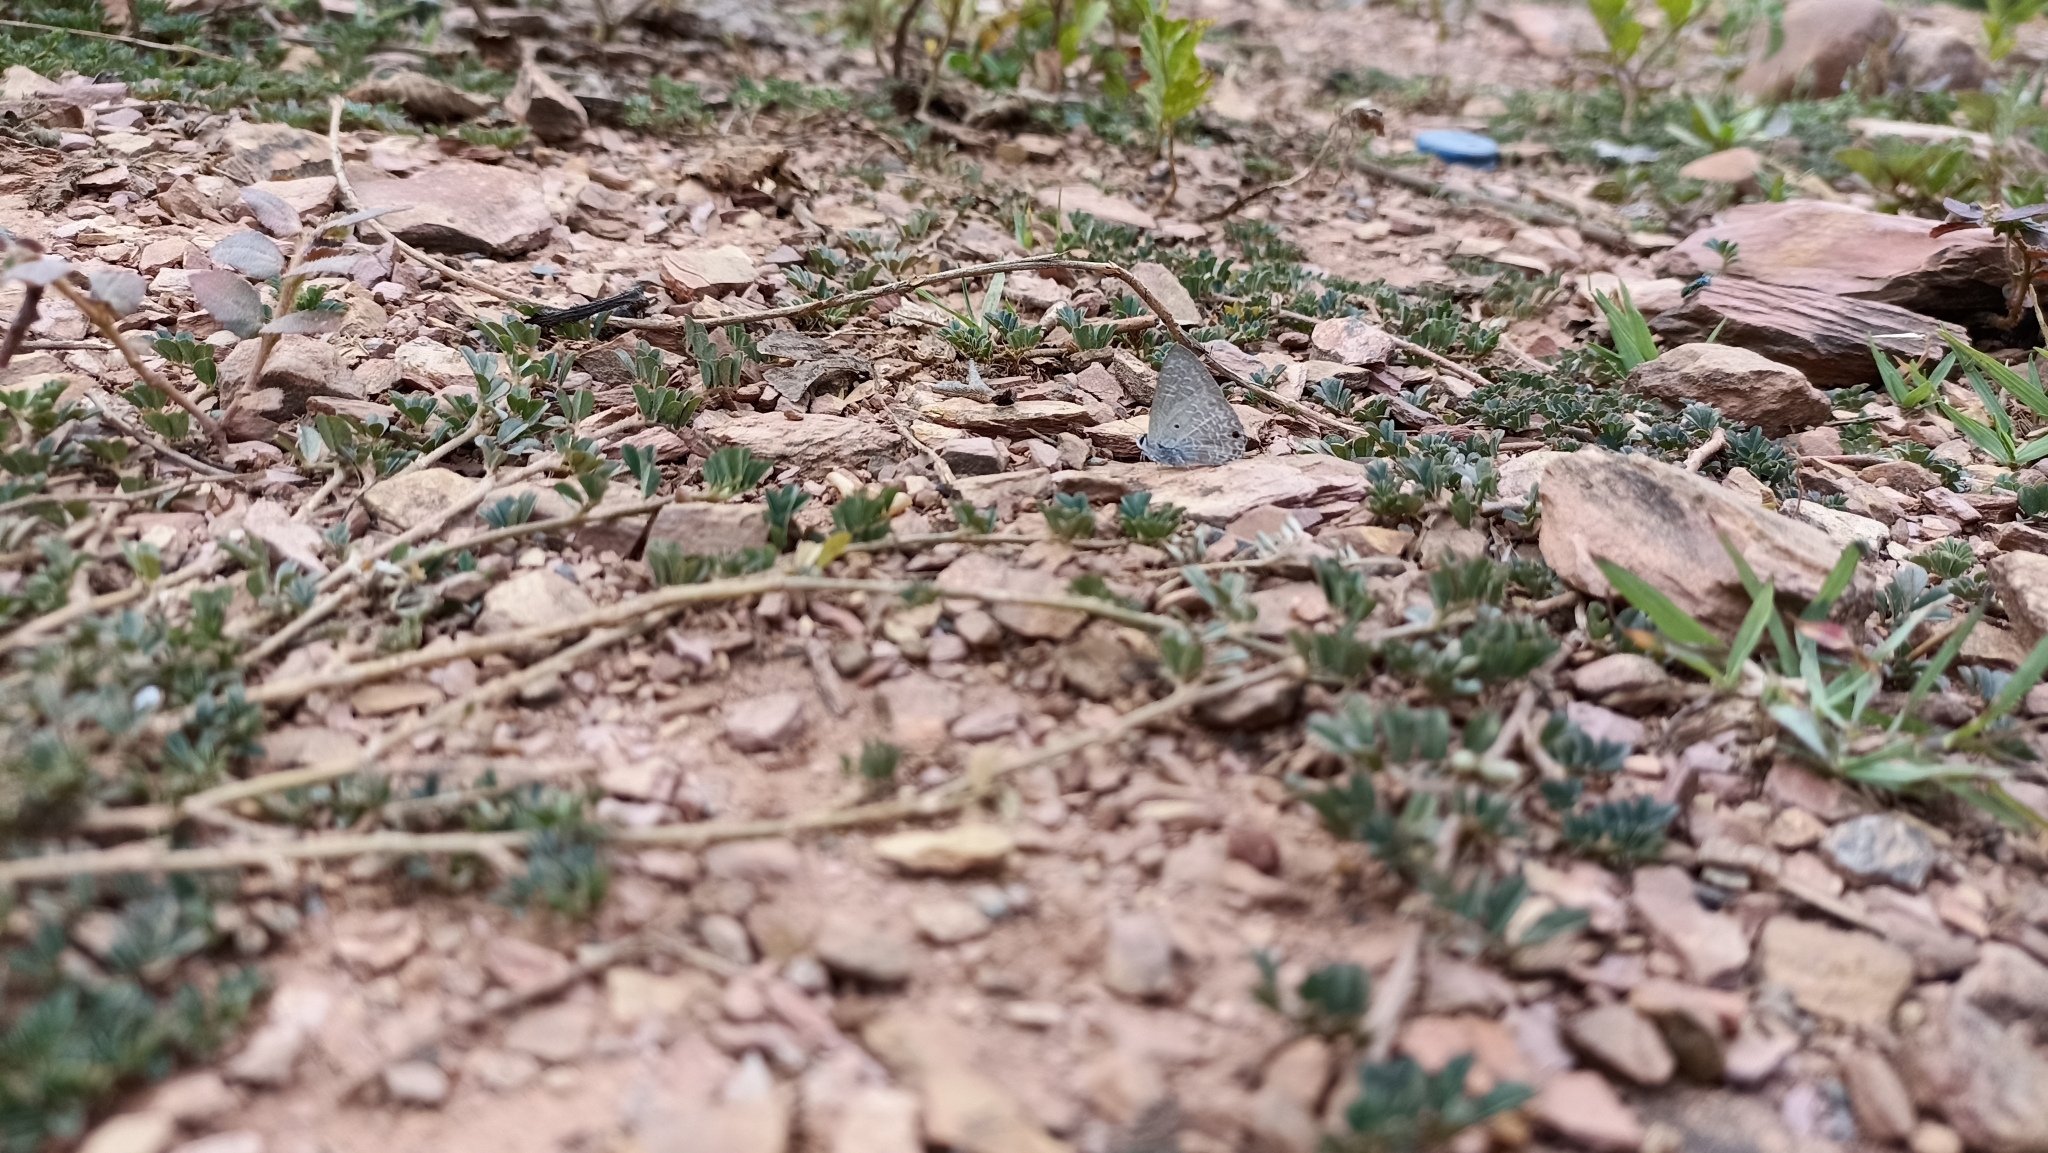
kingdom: Animalia
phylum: Arthropoda
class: Insecta
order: Lepidoptera
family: Lycaenidae
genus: Anthene
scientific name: Anthene lycaenina
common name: Pointed ciliate blue
